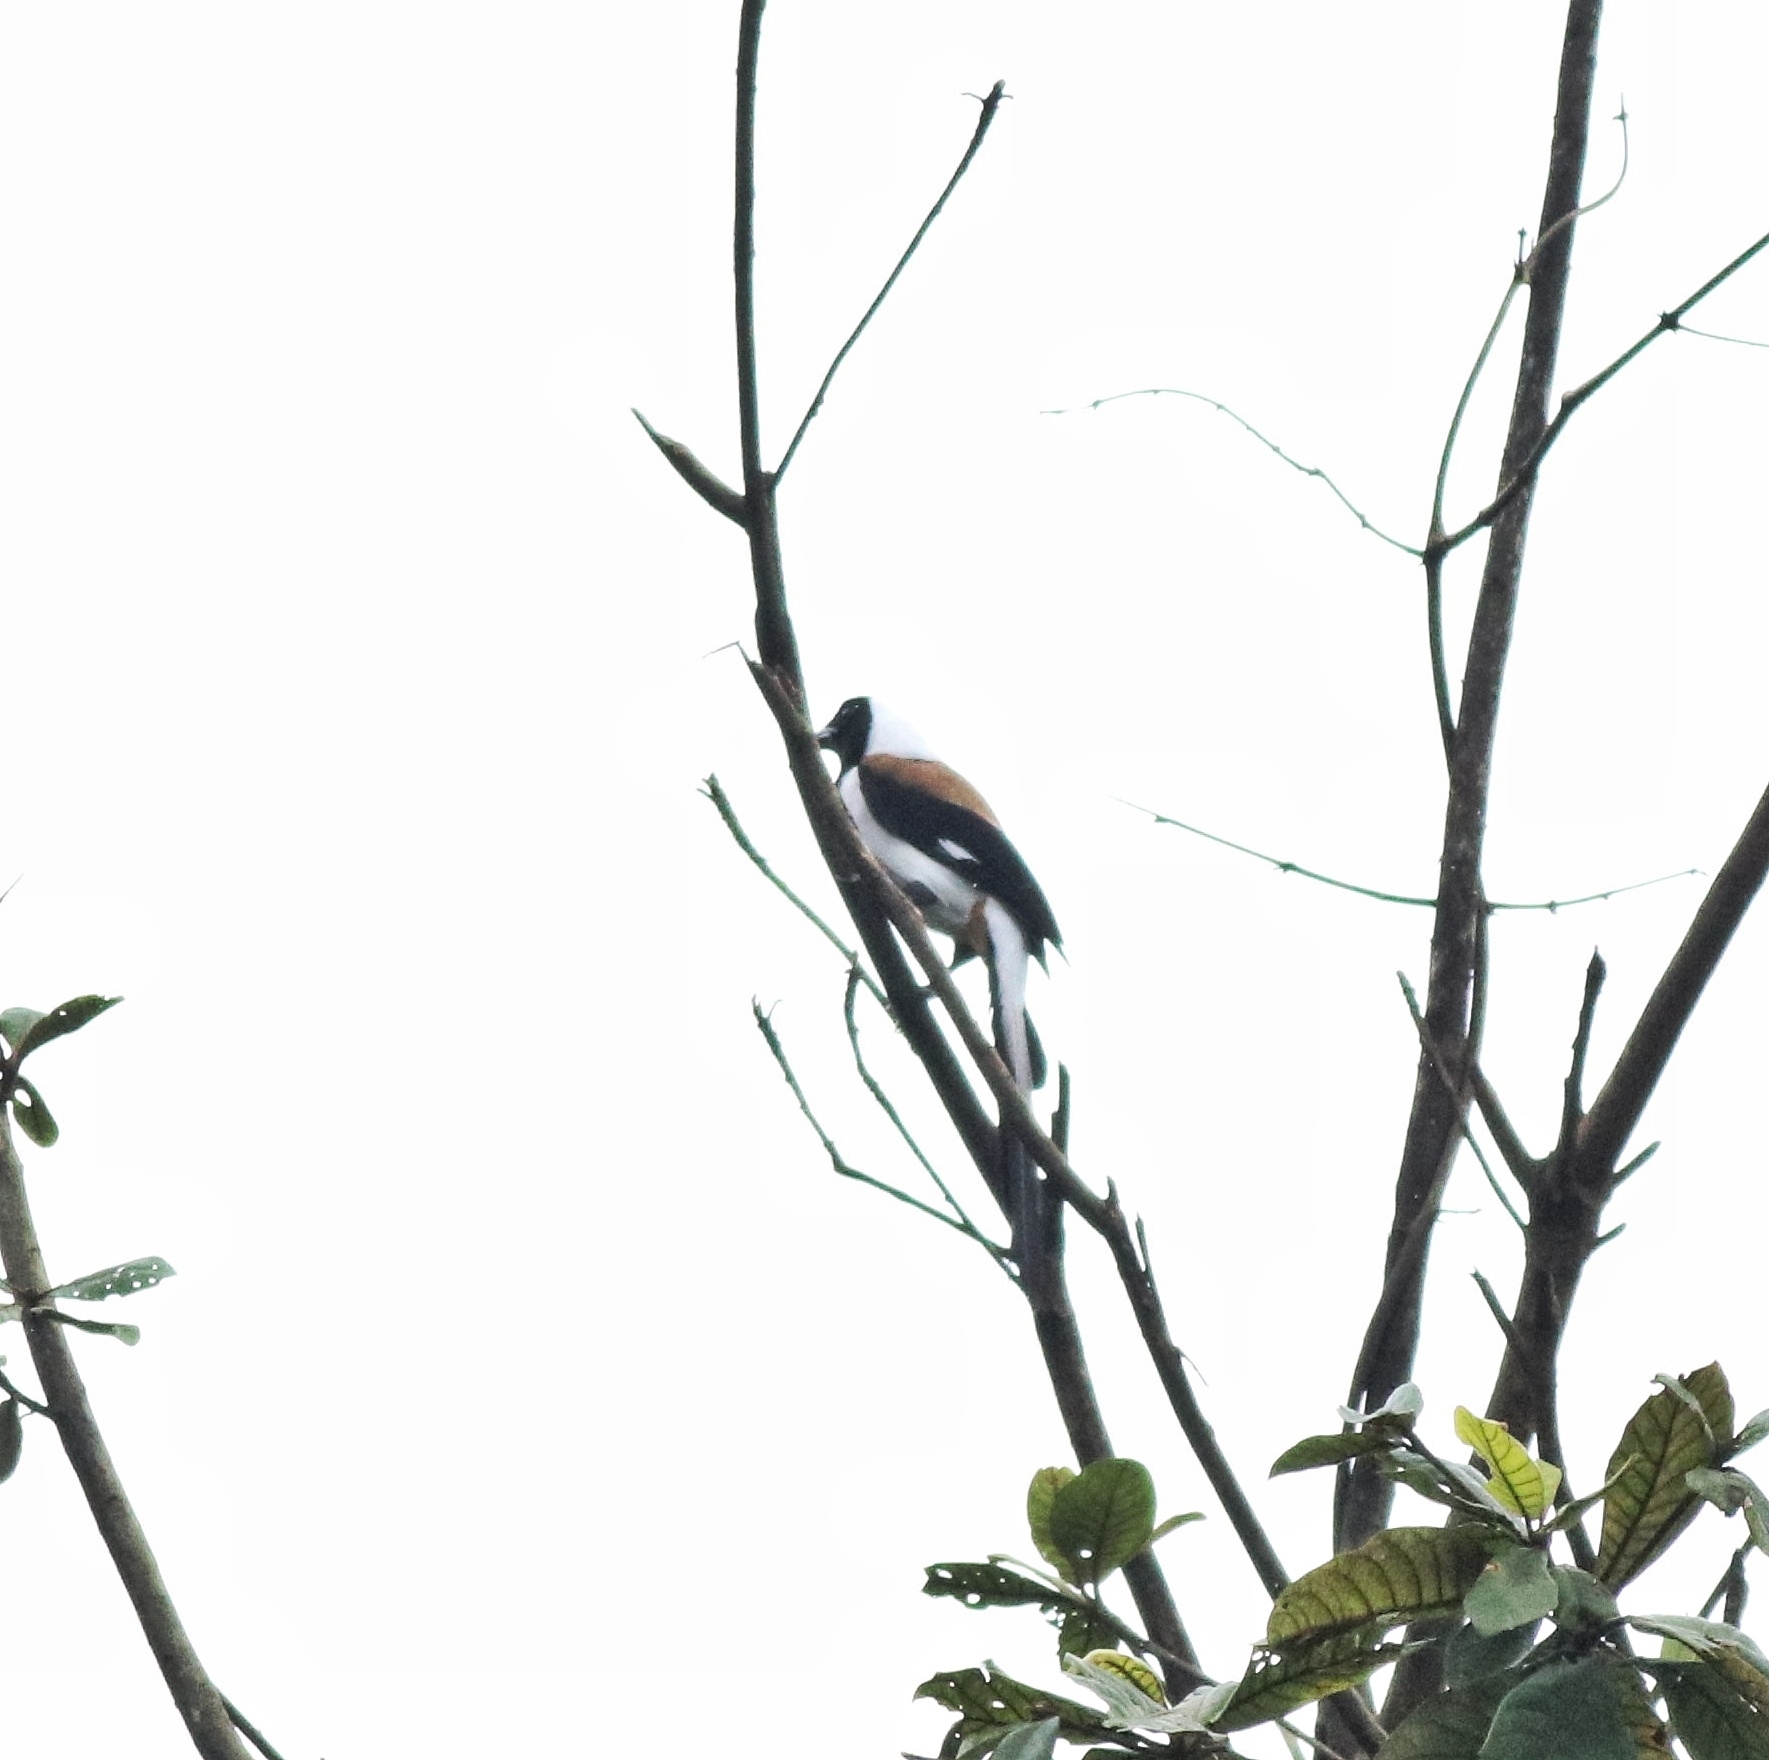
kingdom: Animalia
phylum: Chordata
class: Aves
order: Passeriformes
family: Corvidae
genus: Dendrocitta
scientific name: Dendrocitta leucogastra
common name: White-bellied treepie
